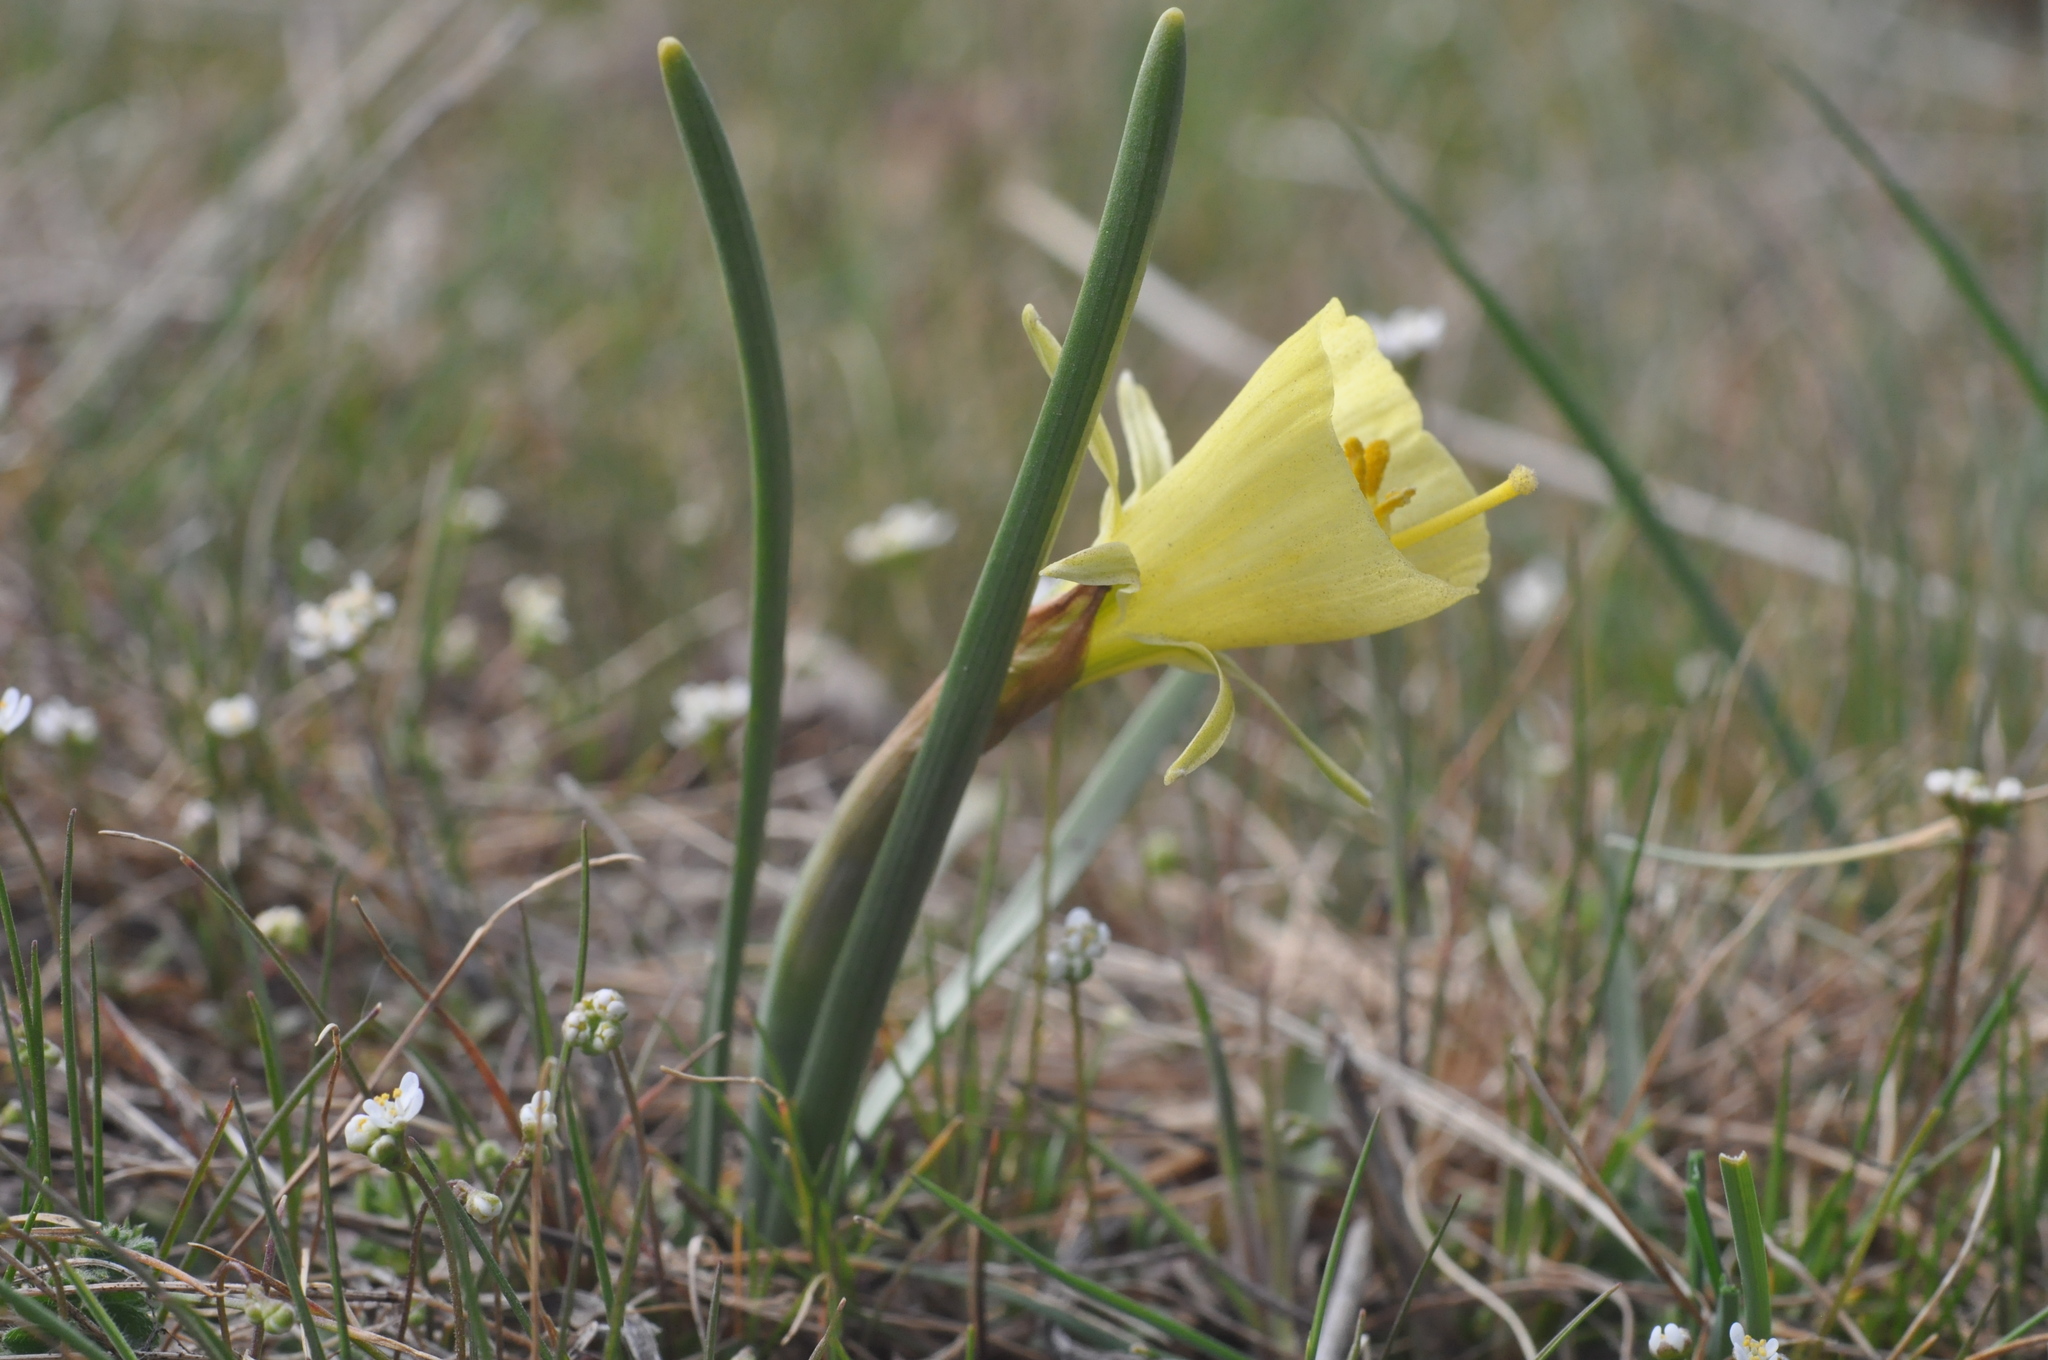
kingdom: Plantae
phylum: Tracheophyta
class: Liliopsida
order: Asparagales
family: Amaryllidaceae
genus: Narcissus
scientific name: Narcissus bulbocodium
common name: Hoop-petticoat daffodil
